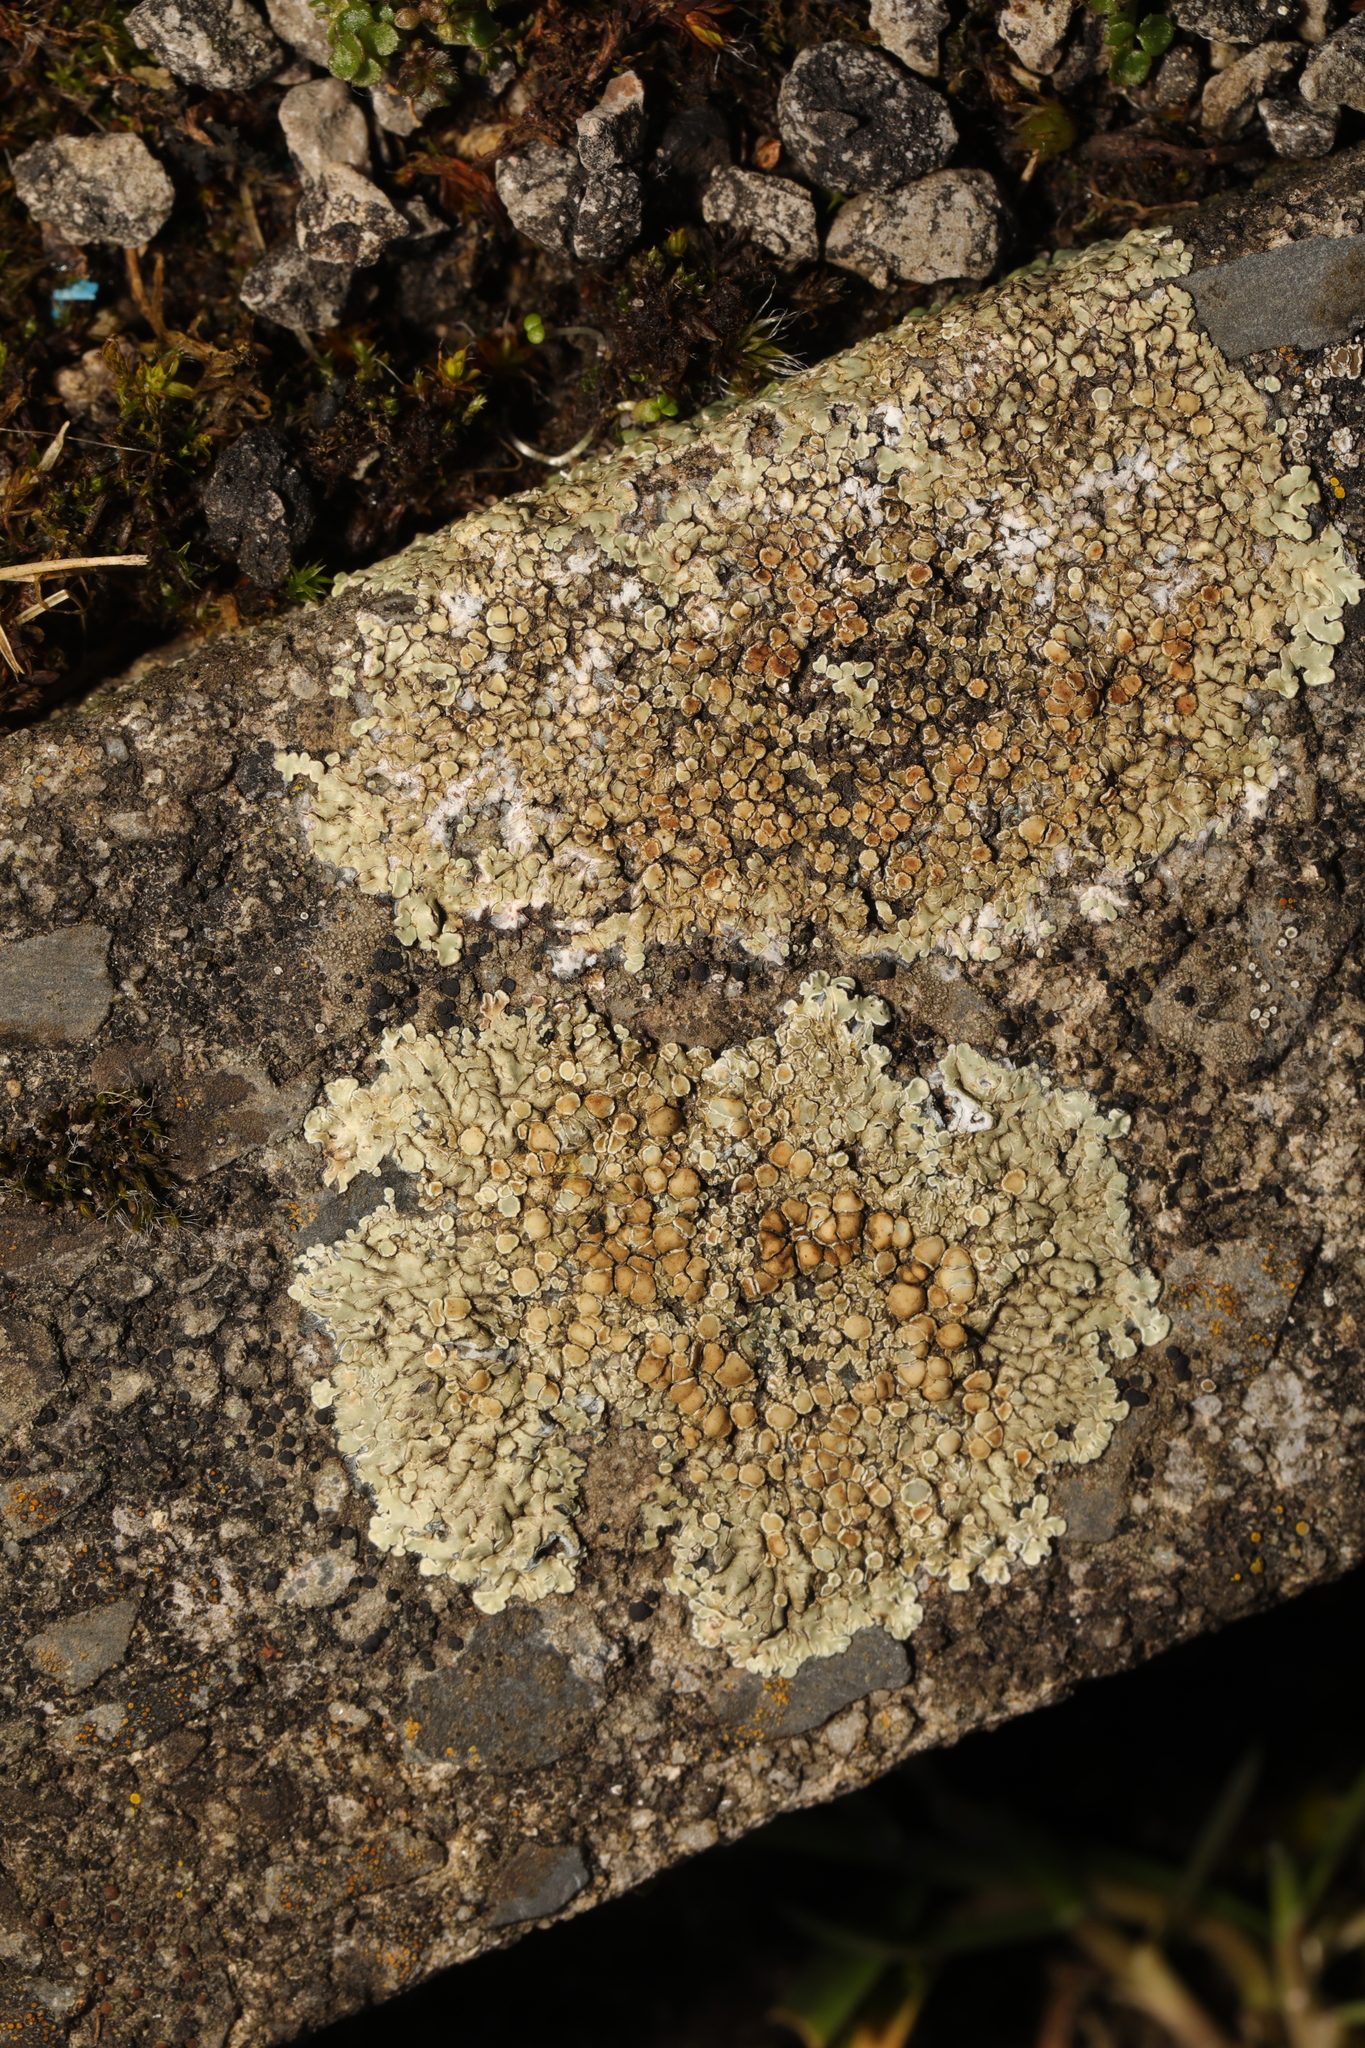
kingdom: Fungi
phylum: Ascomycota
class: Lecanoromycetes
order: Lecanorales
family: Lecanoraceae
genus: Protoparmeliopsis
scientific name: Protoparmeliopsis muralis
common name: Stonewall rim lichen
